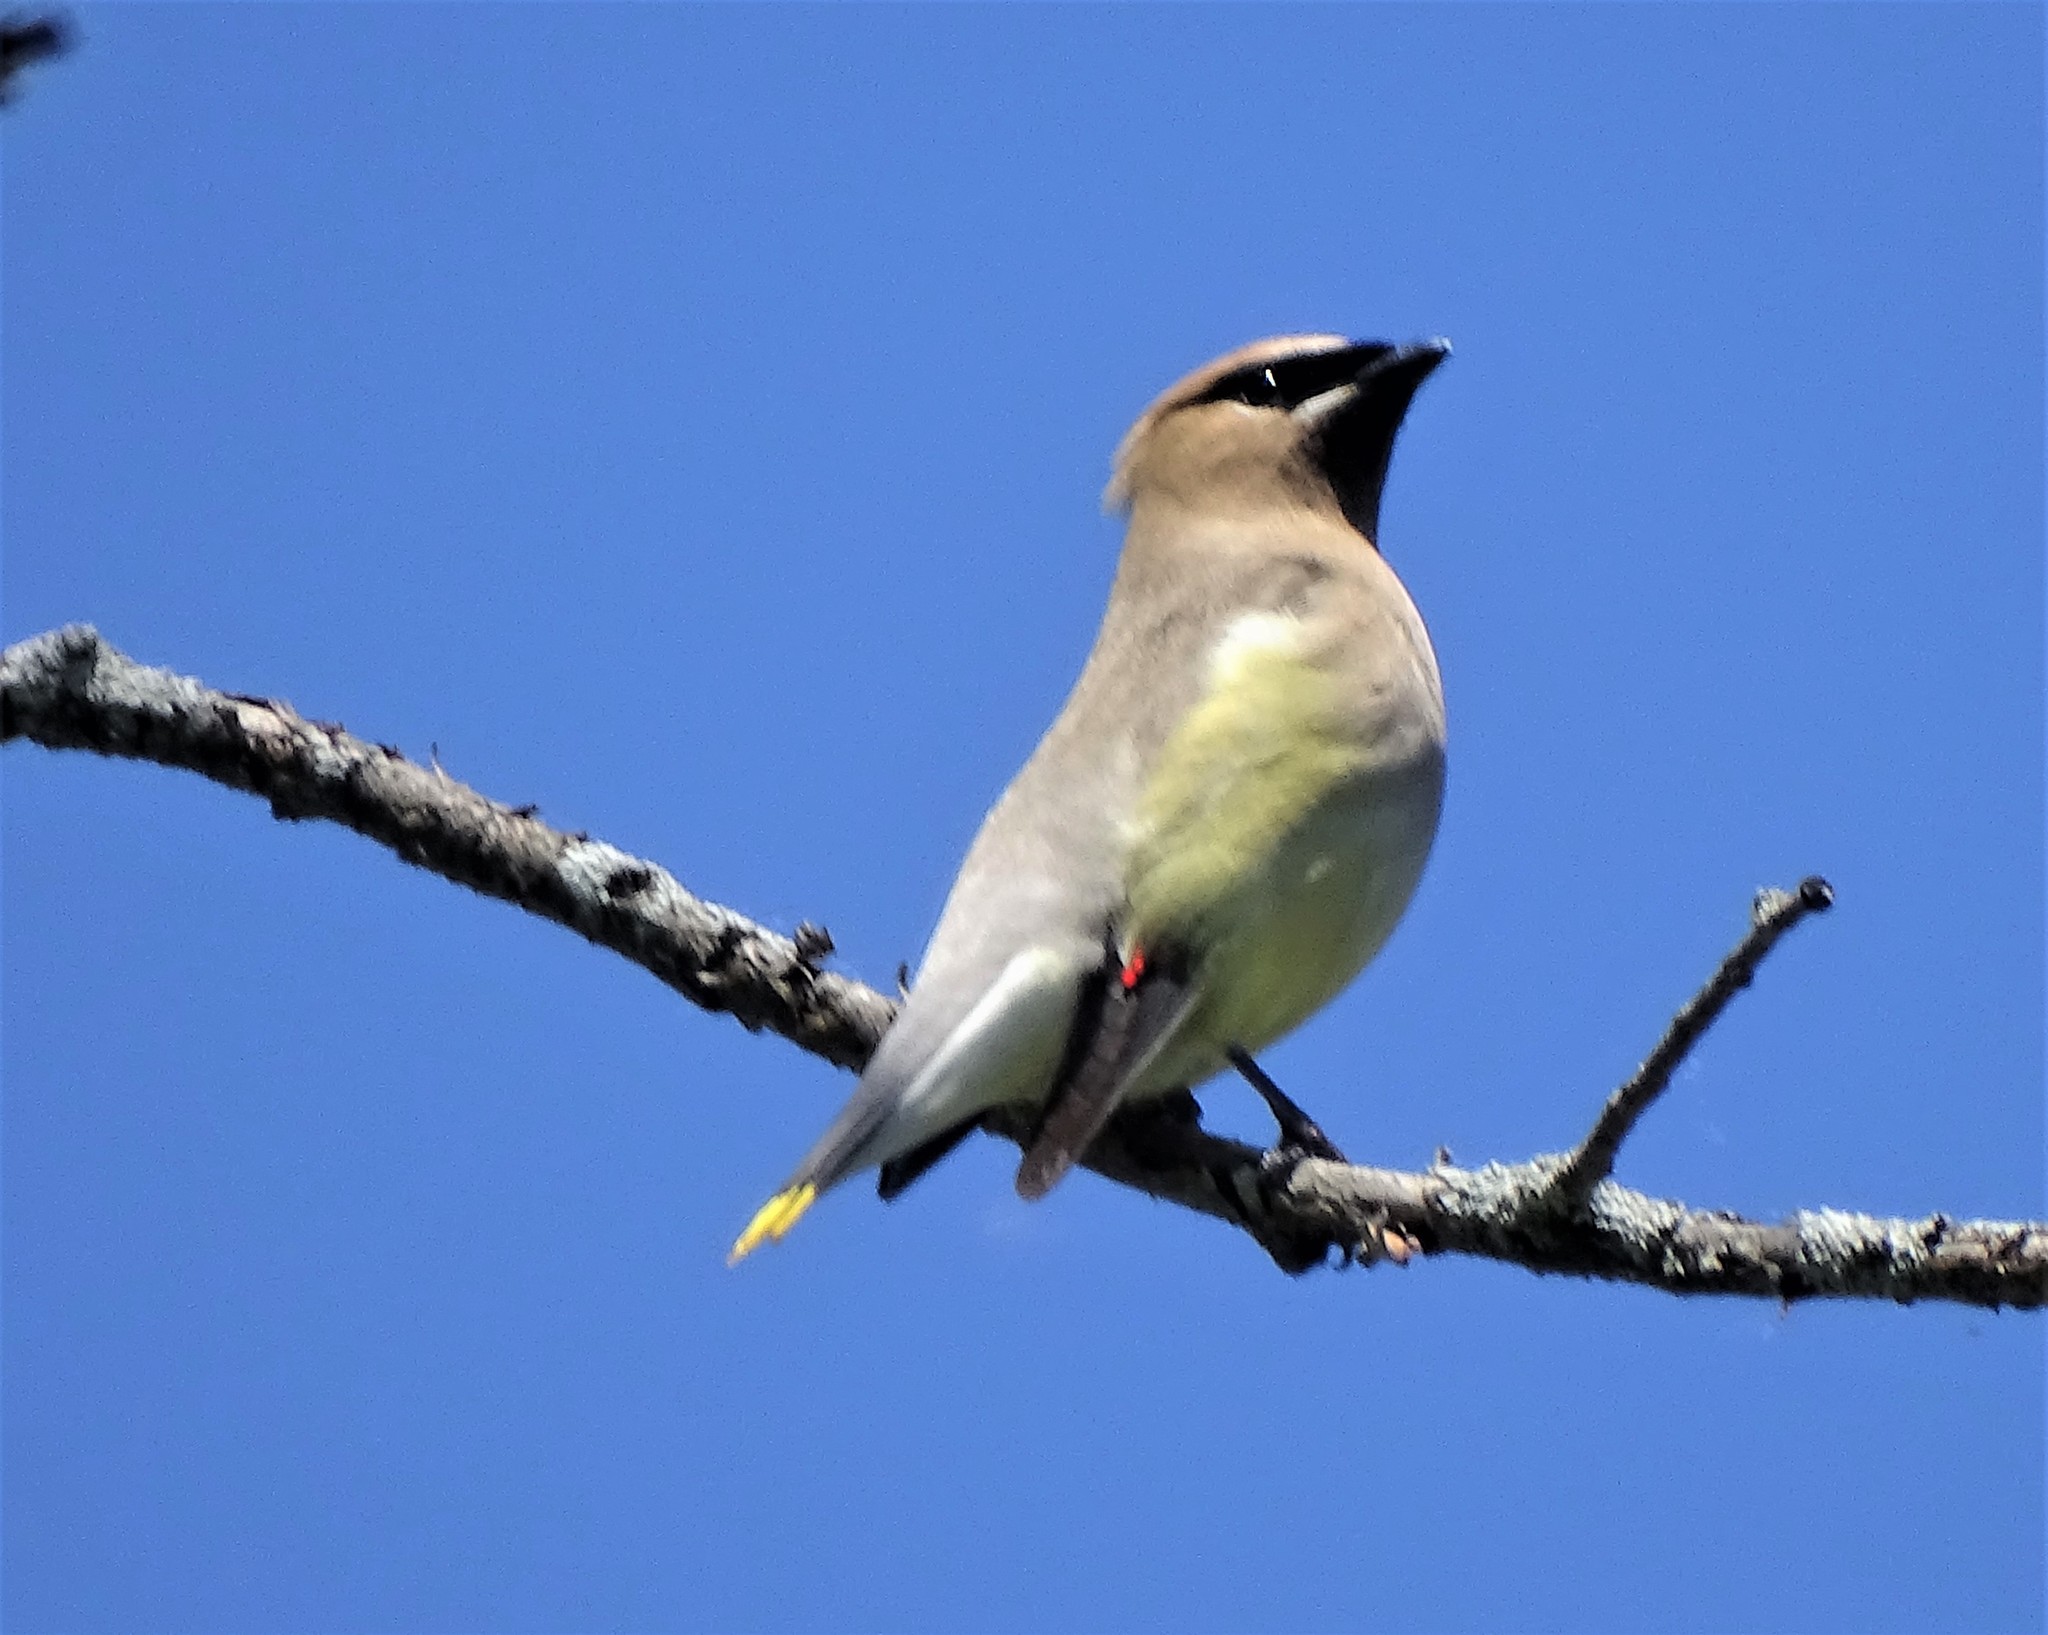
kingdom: Animalia
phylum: Chordata
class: Aves
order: Passeriformes
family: Bombycillidae
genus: Bombycilla
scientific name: Bombycilla cedrorum
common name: Cedar waxwing
